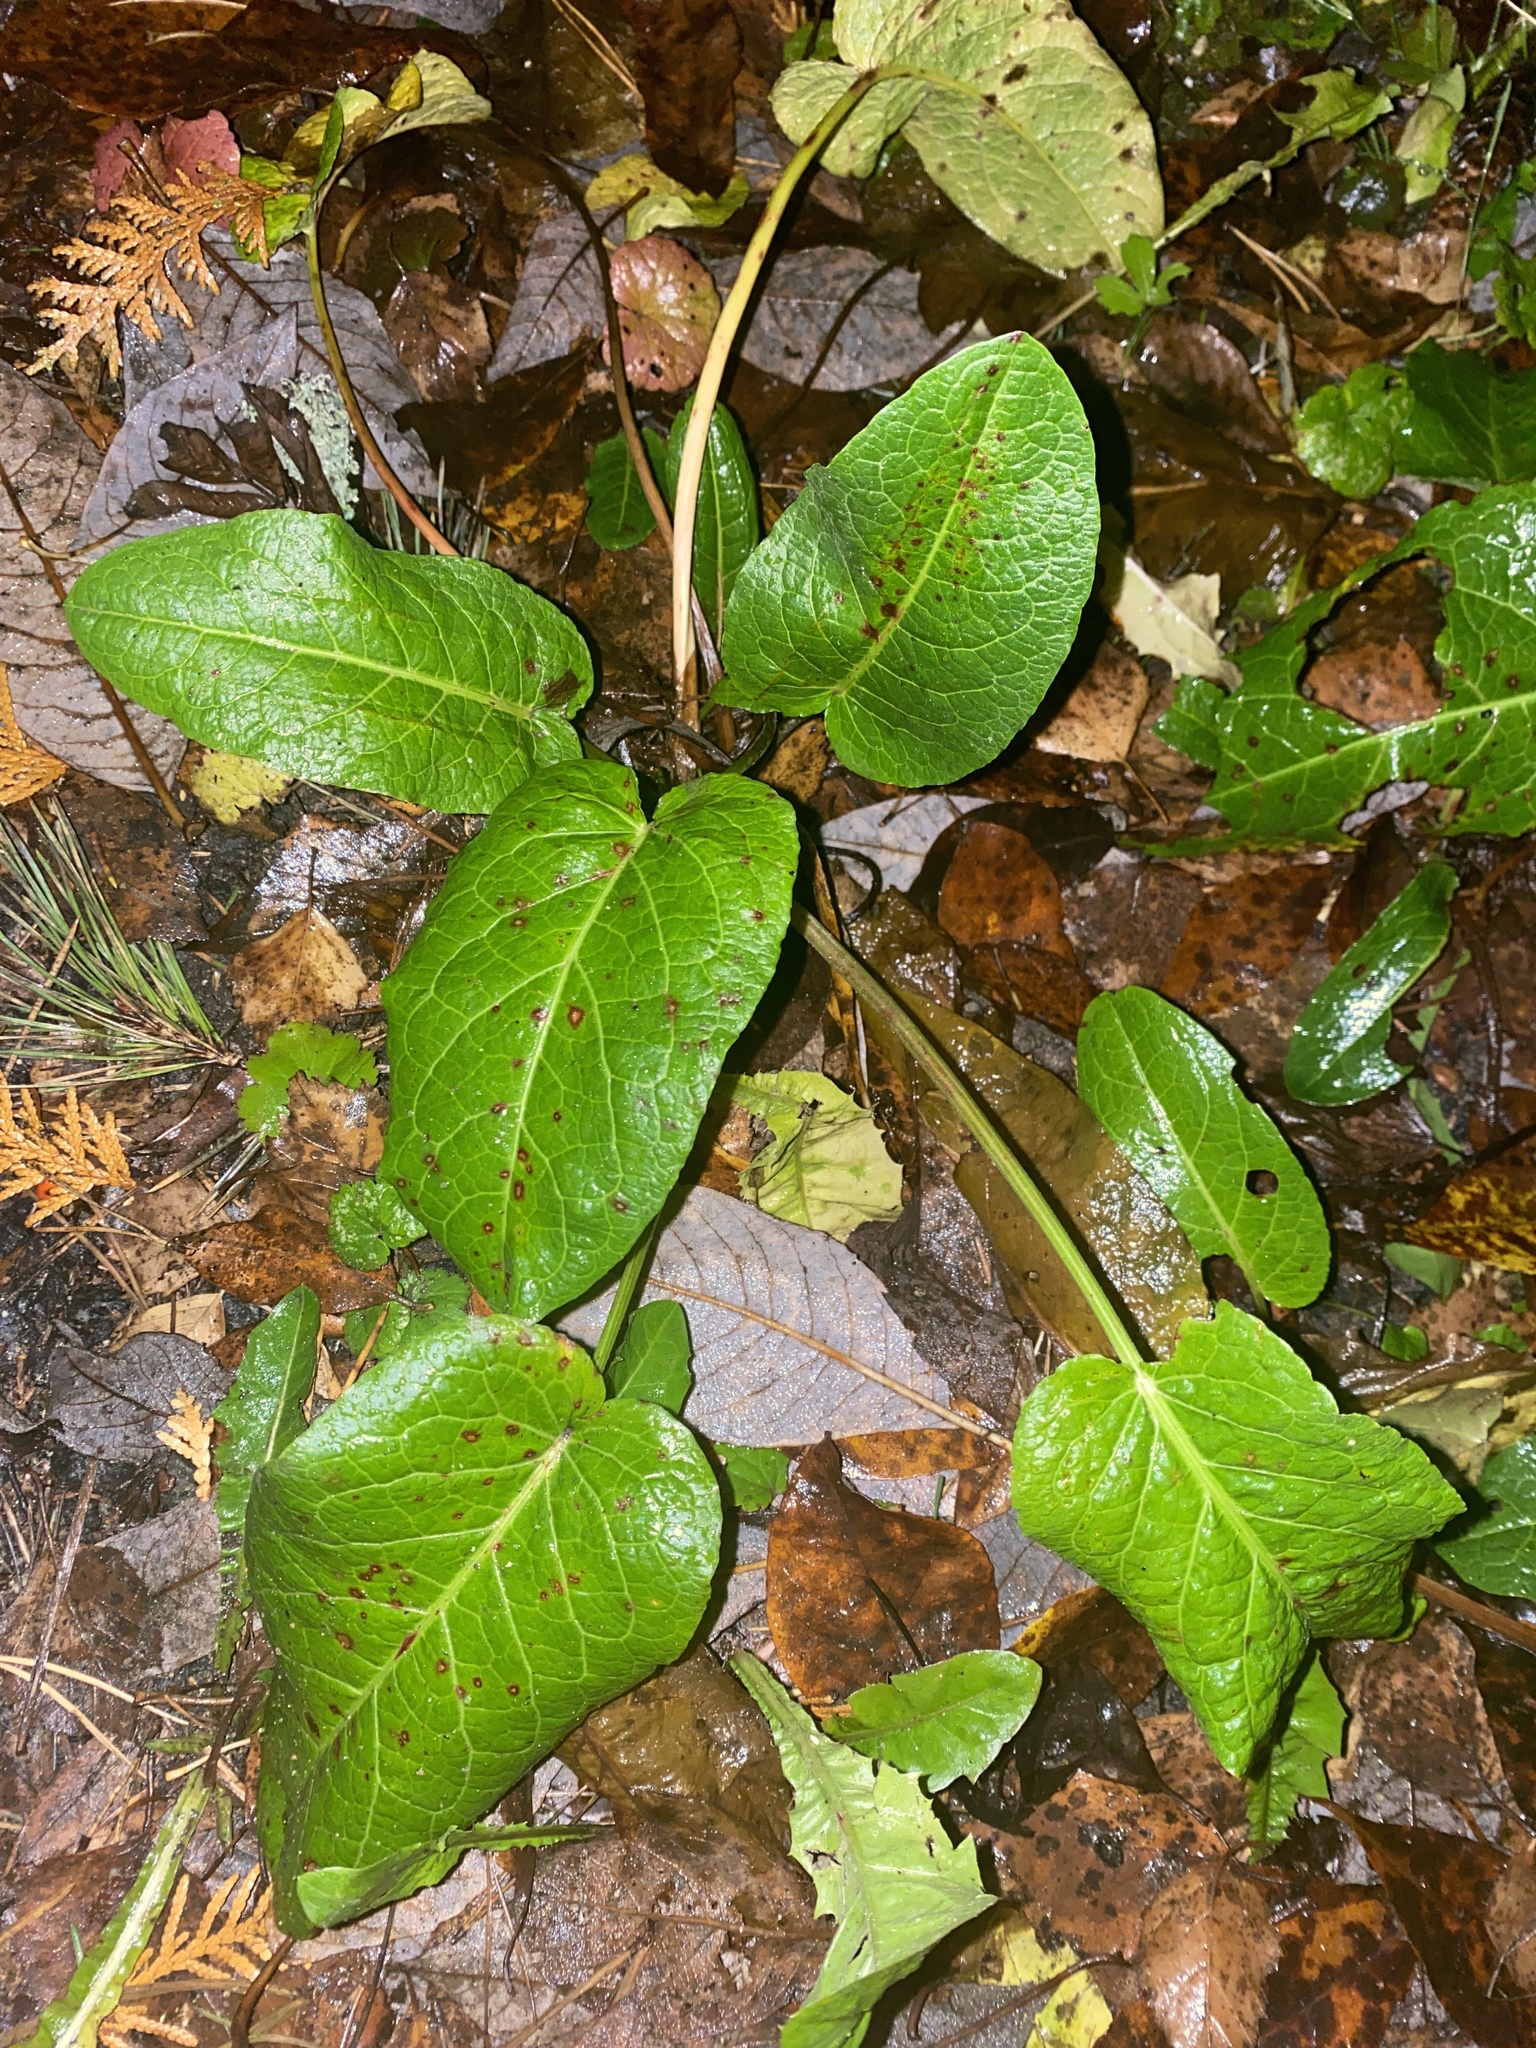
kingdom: Plantae
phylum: Tracheophyta
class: Magnoliopsida
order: Caryophyllales
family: Polygonaceae
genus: Rumex
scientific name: Rumex obtusifolius
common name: Bitter dock
